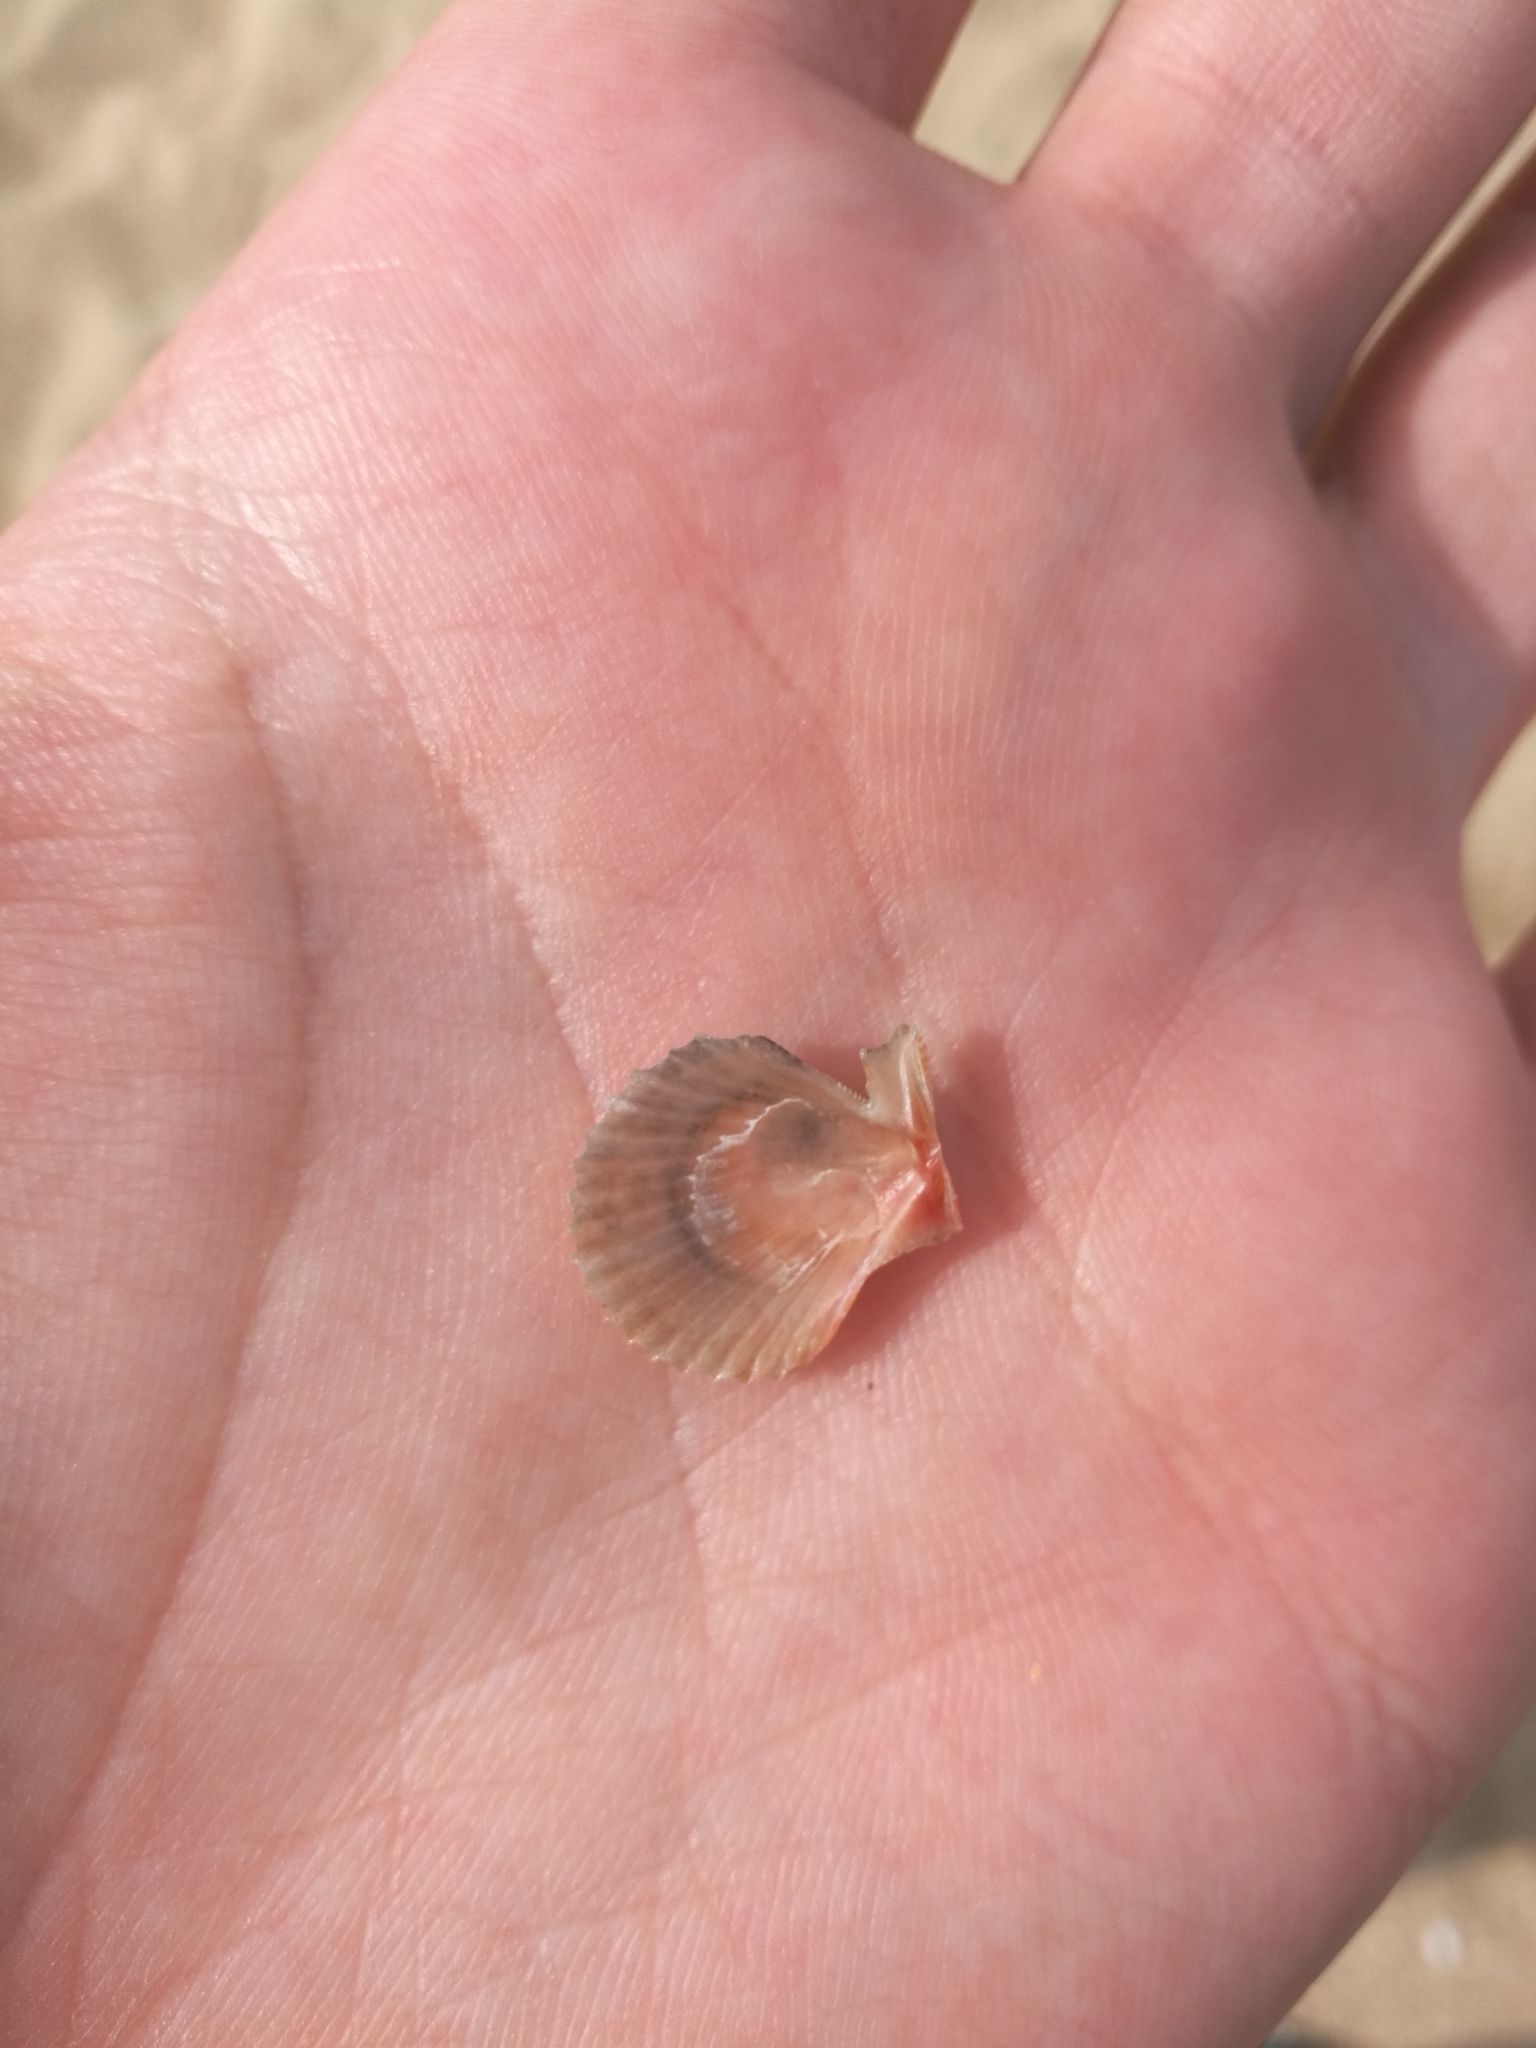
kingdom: Animalia
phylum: Mollusca
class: Bivalvia
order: Pectinida
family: Pectinidae
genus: Mimachlamys
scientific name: Mimachlamys varia
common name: Variegated scallop
